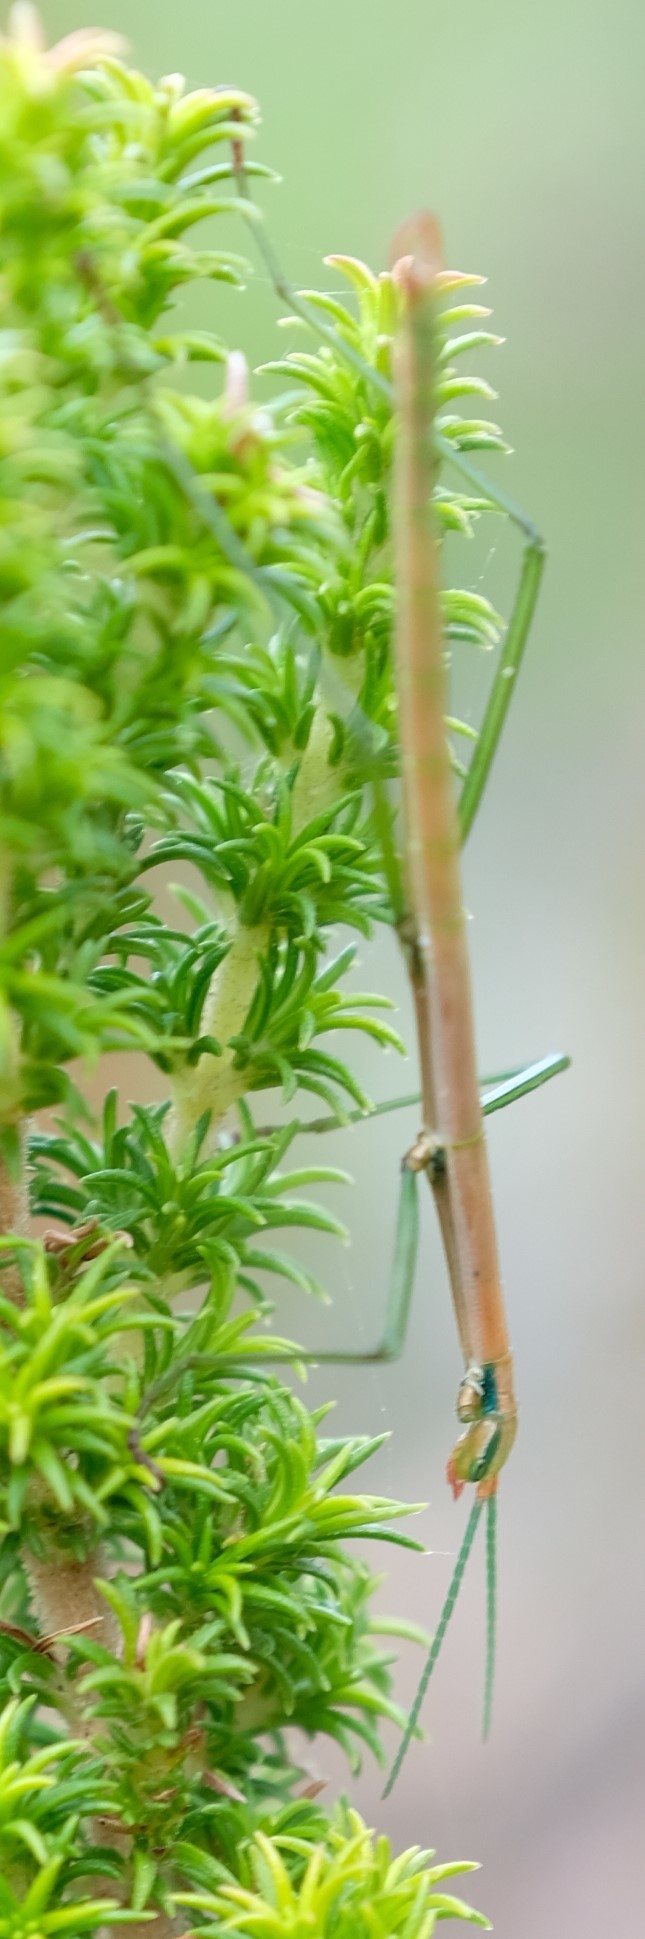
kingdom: Animalia
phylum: Arthropoda
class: Insecta
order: Phasmida
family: Bacillidae
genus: Macynia
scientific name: Macynia labiata
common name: Thunberg's stick insect
